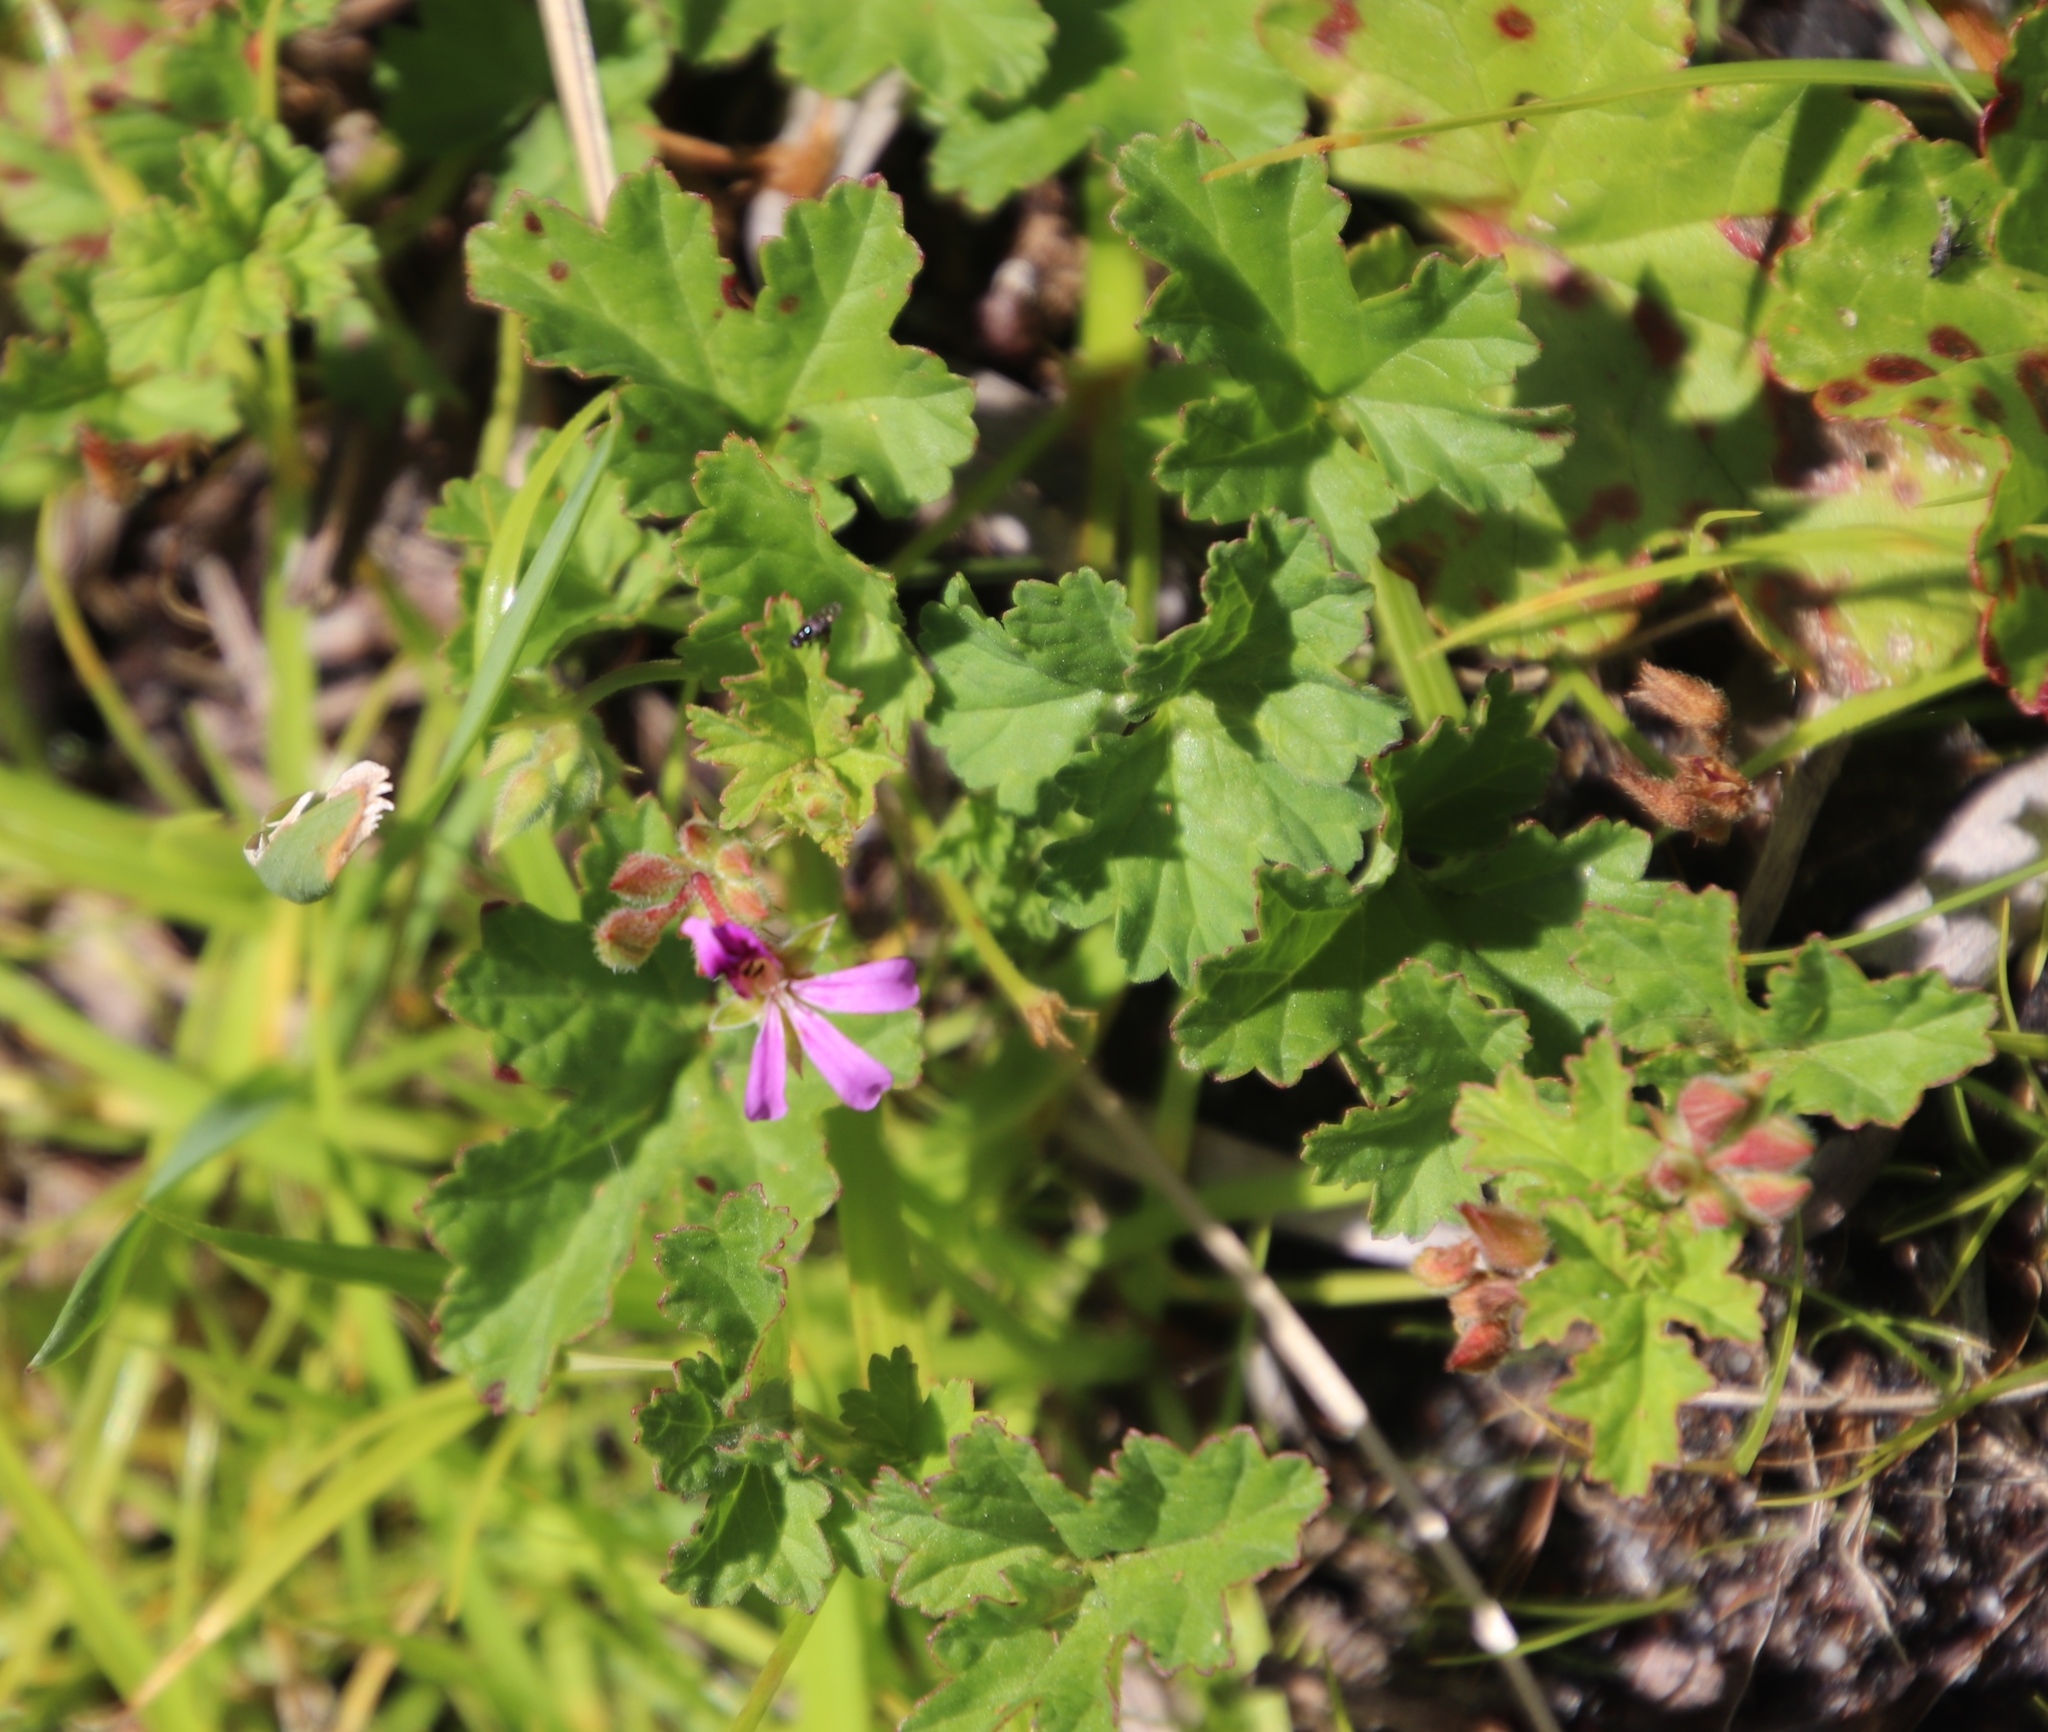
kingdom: Plantae
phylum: Tracheophyta
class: Magnoliopsida
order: Geraniales
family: Geraniaceae
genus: Pelargonium
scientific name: Pelargonium grossularioides
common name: Gooseberry geranium
